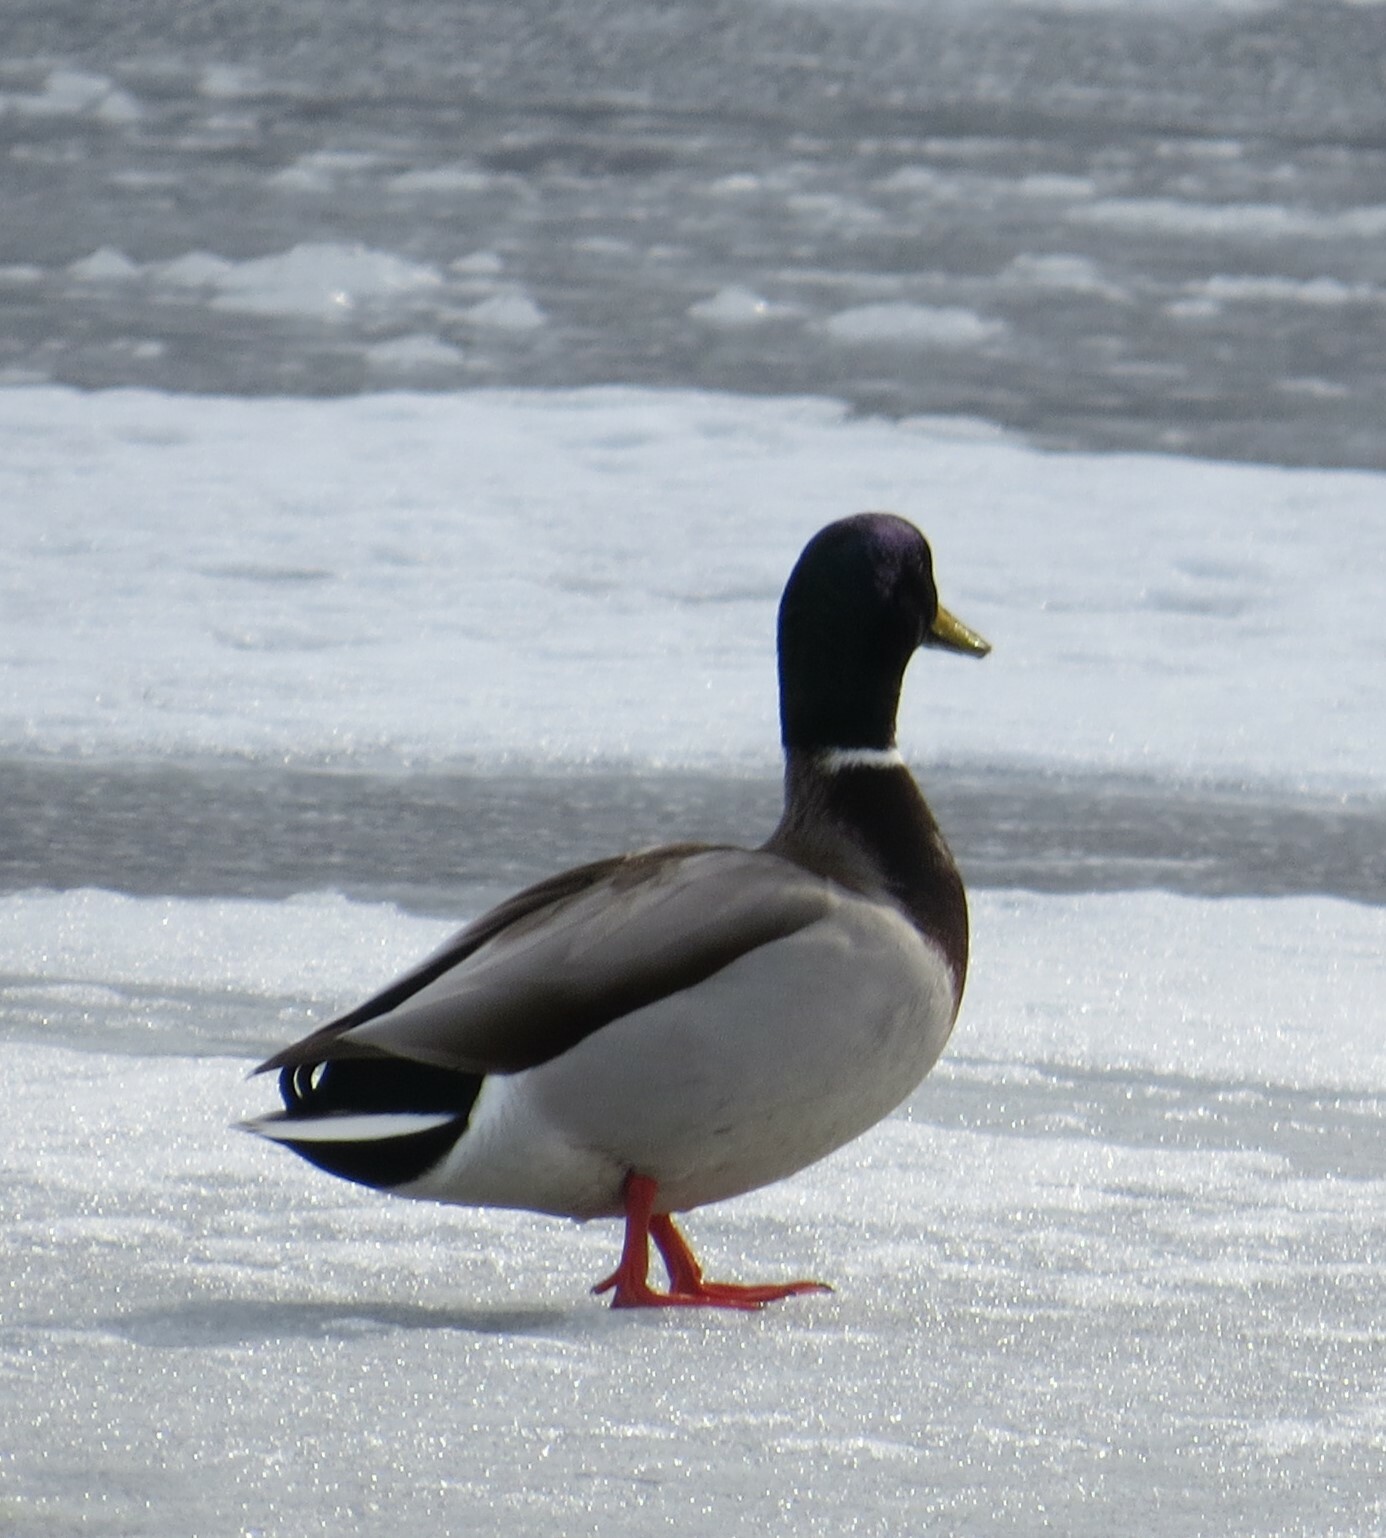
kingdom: Animalia
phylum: Chordata
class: Aves
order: Anseriformes
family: Anatidae
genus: Anas
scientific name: Anas platyrhynchos
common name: Mallard
